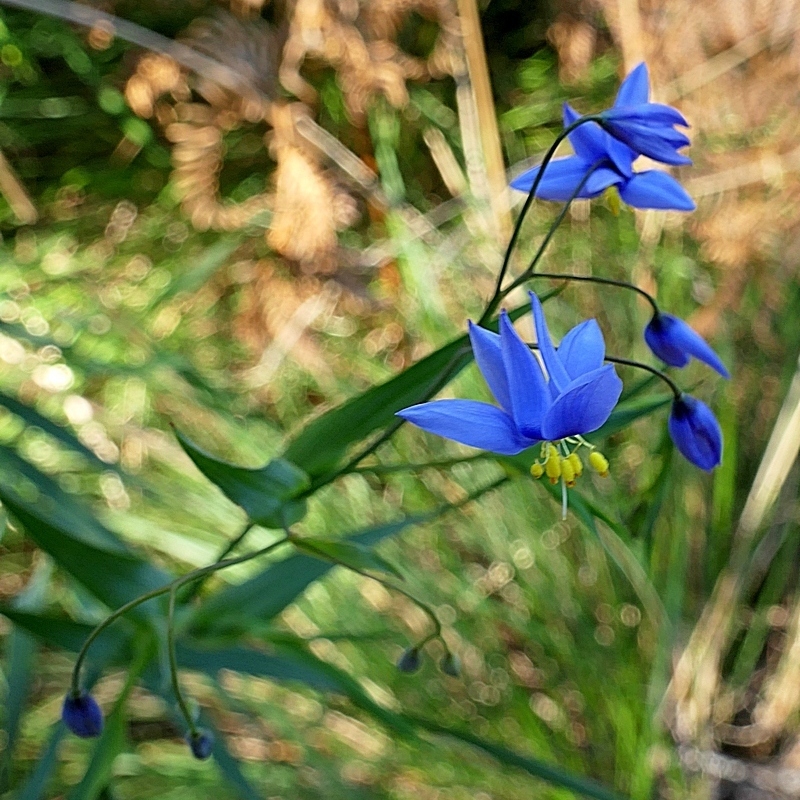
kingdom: Plantae
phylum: Tracheophyta
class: Liliopsida
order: Asparagales
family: Asphodelaceae
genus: Stypandra
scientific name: Stypandra glauca
